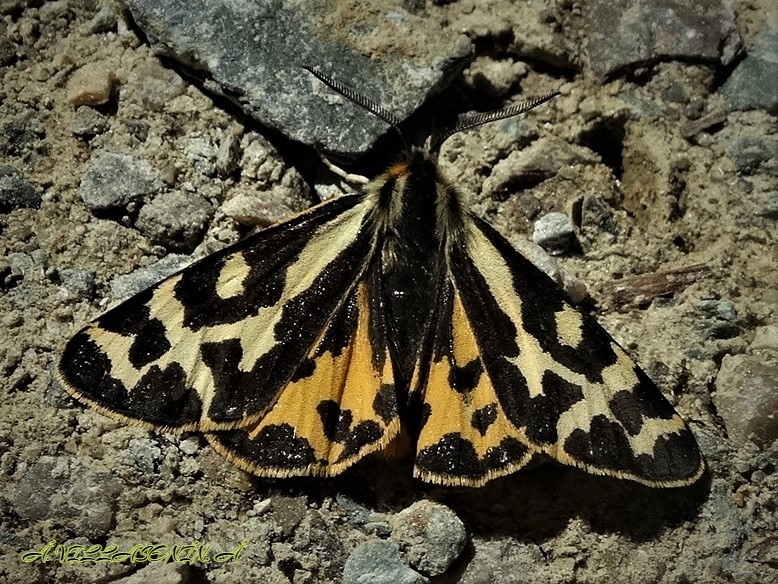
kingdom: Animalia
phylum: Arthropoda
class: Insecta
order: Lepidoptera
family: Erebidae
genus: Parasemia
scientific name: Parasemia plantaginis
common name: Wood tiger
